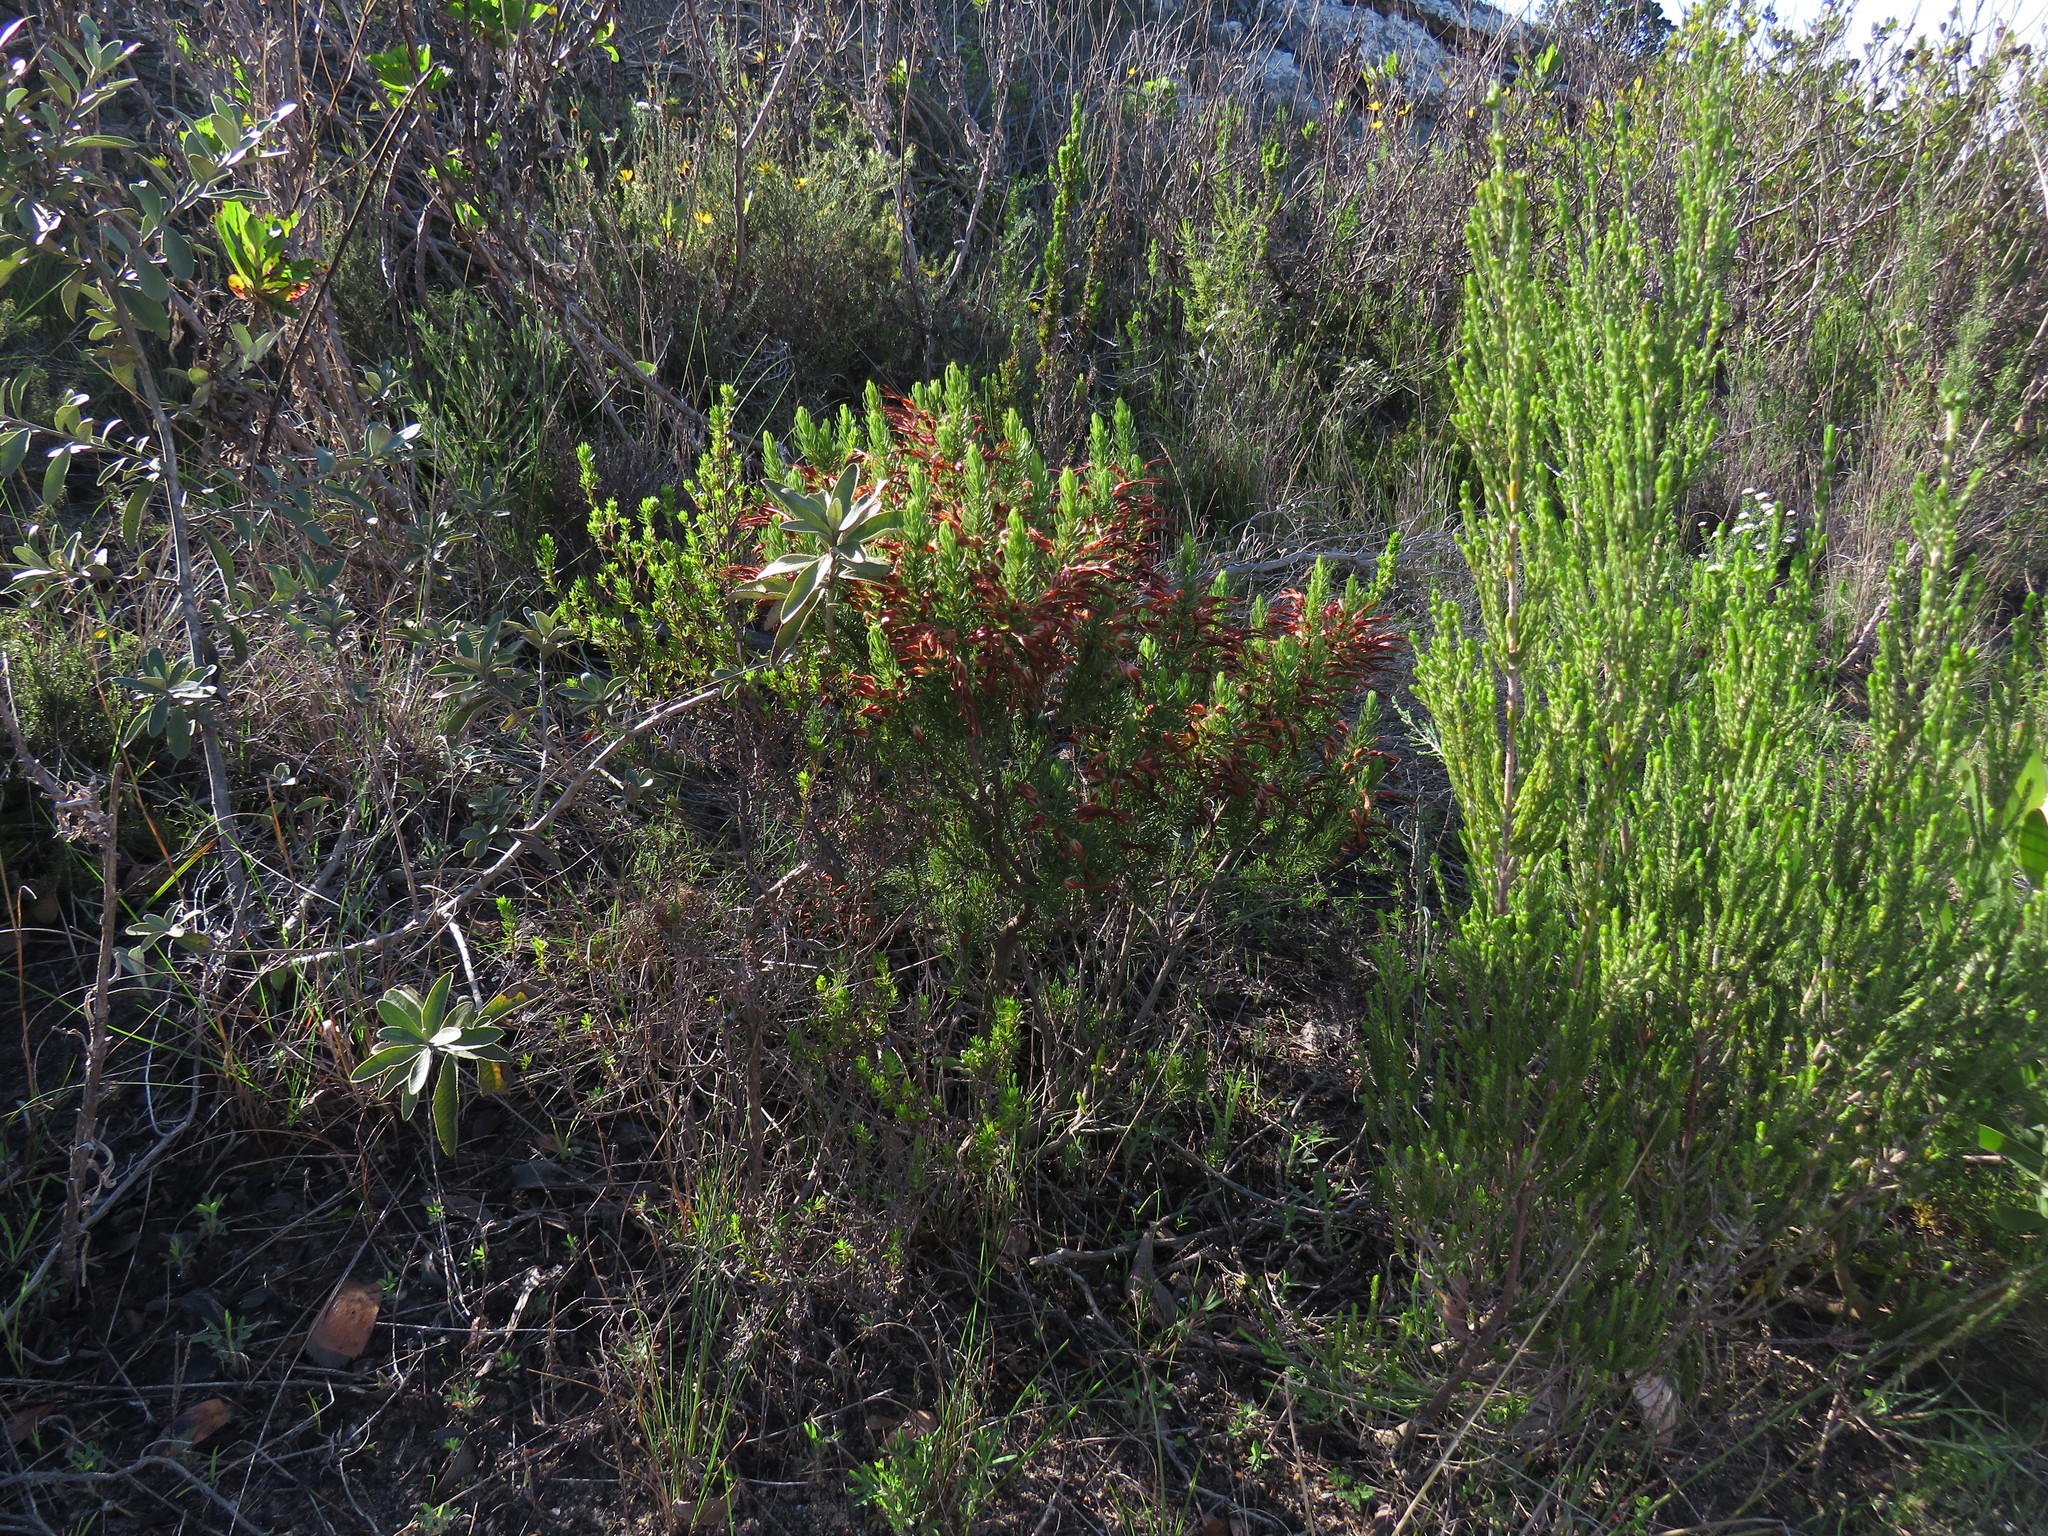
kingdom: Plantae
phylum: Tracheophyta
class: Magnoliopsida
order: Ericales
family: Ericaceae
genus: Erica
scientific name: Erica plukenetii
